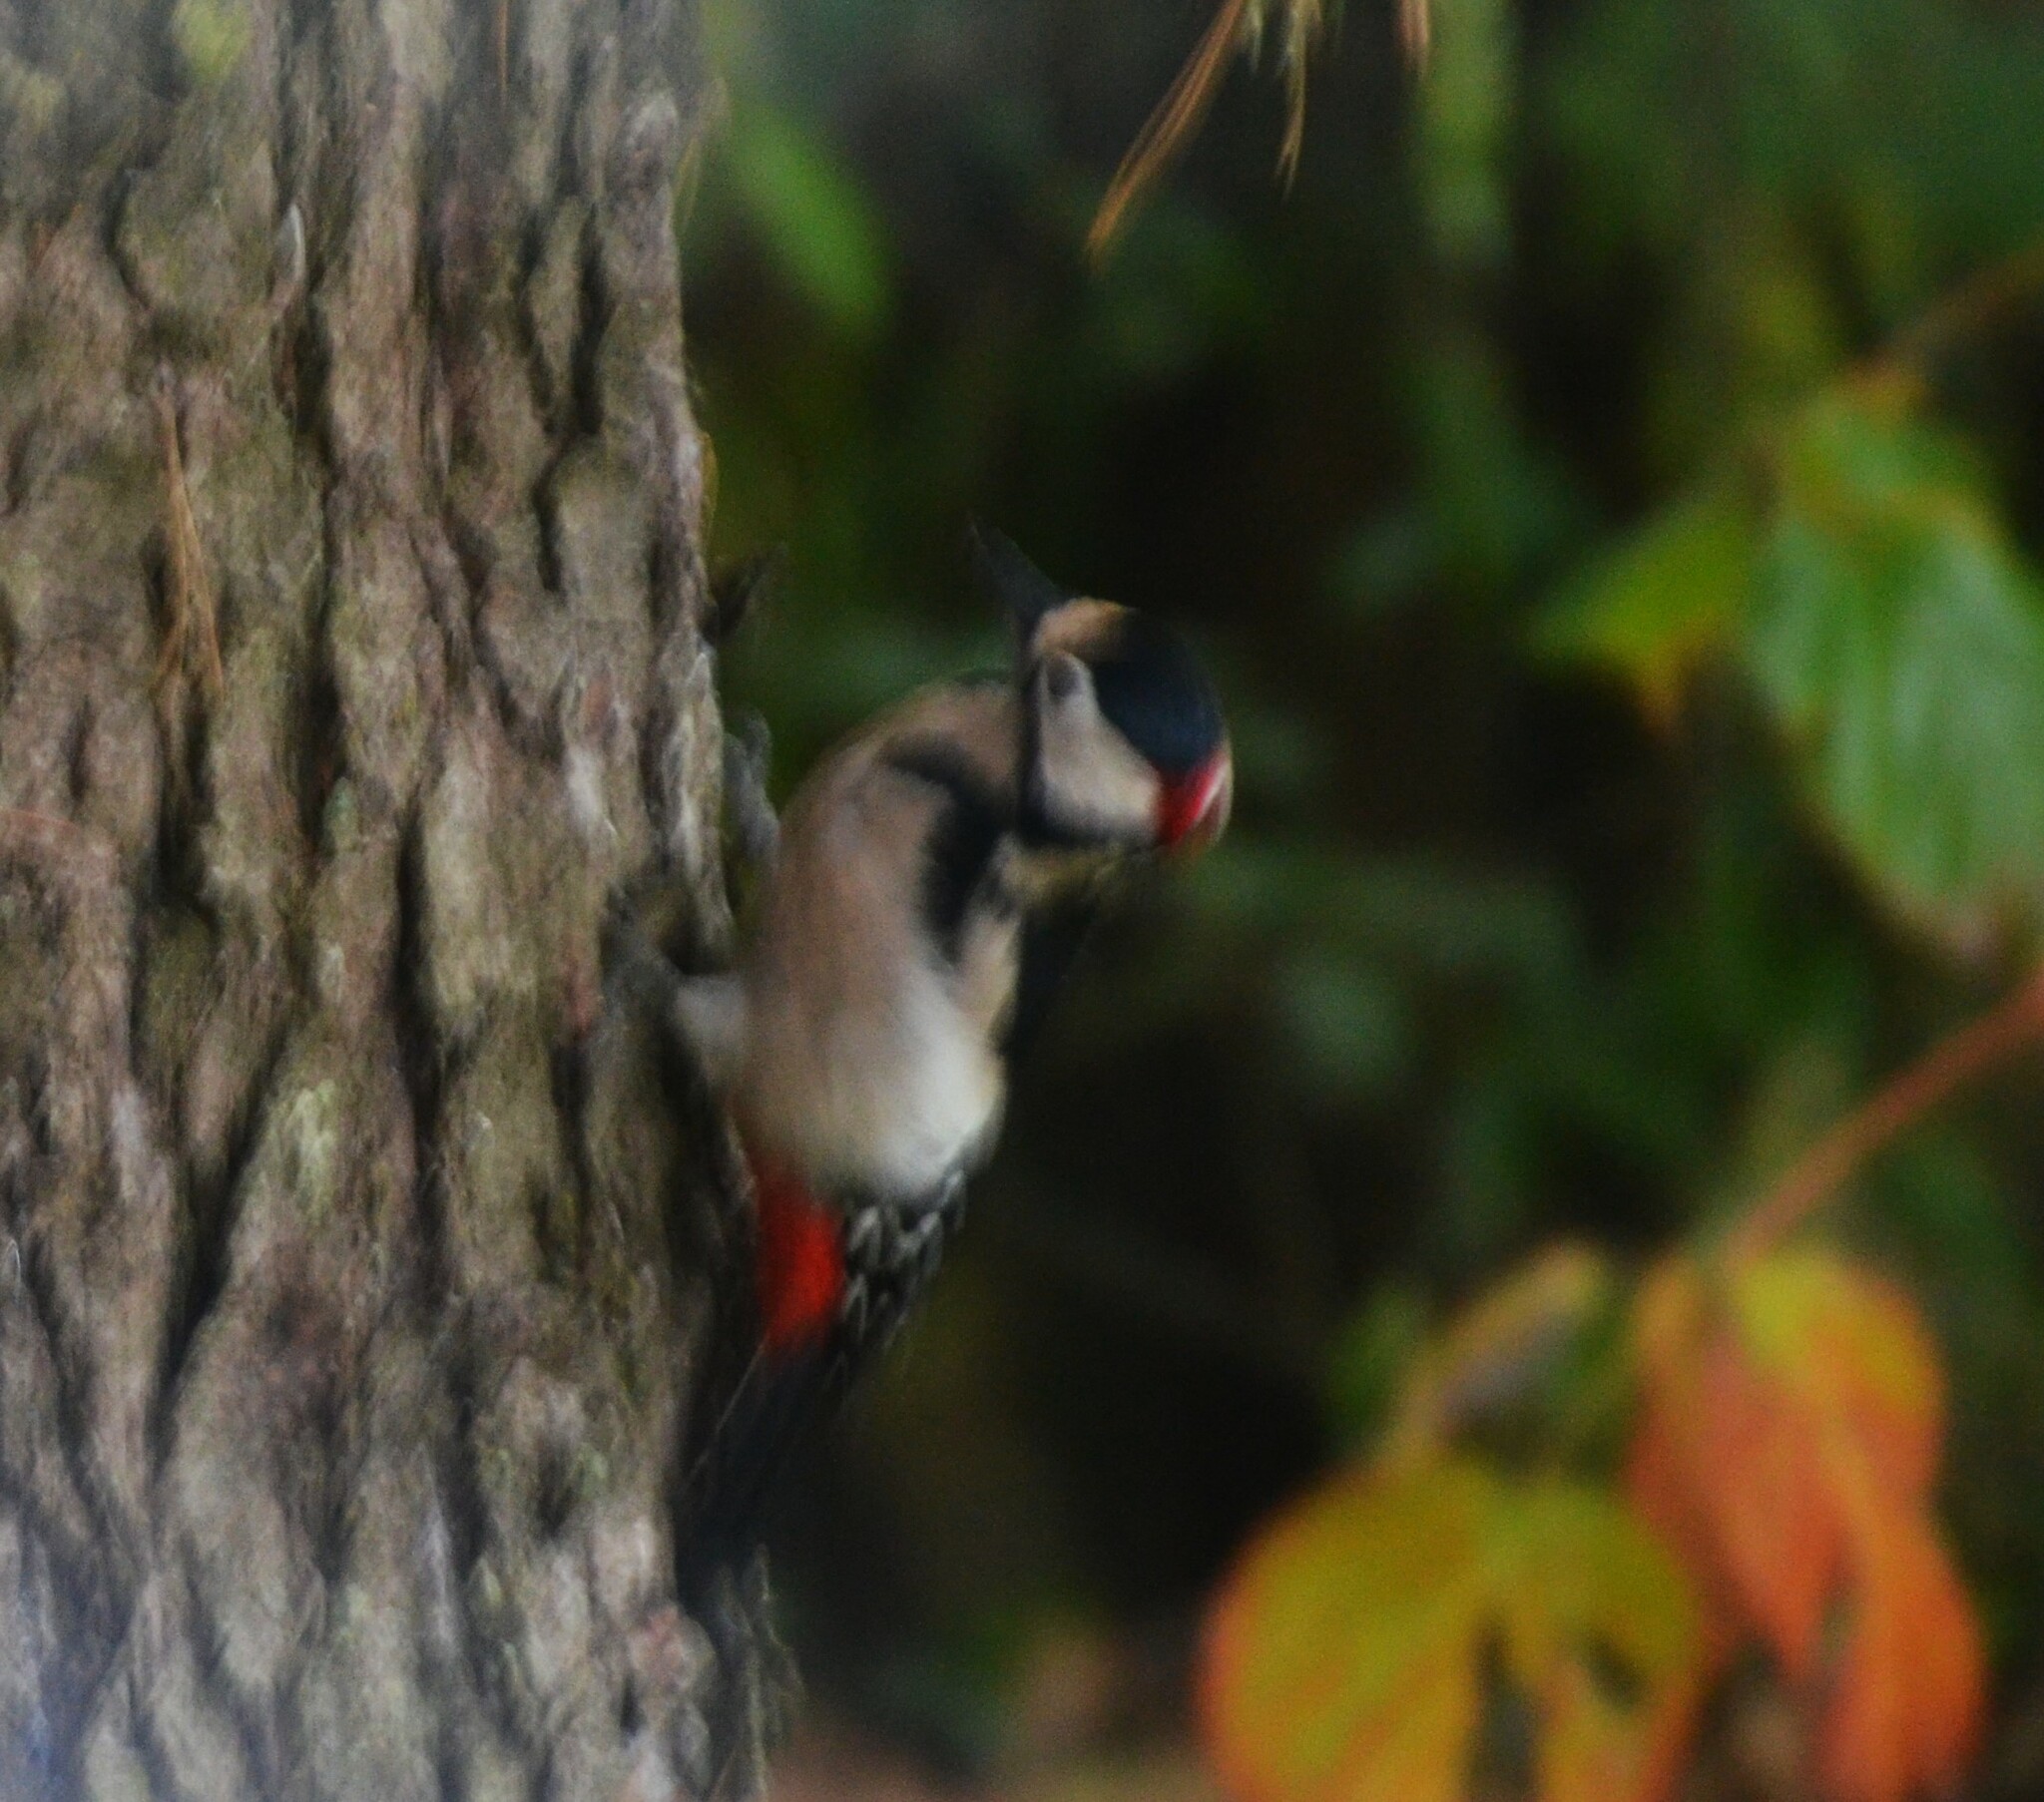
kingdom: Animalia
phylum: Chordata
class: Aves
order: Piciformes
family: Picidae
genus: Dendrocopos
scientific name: Dendrocopos major
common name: Great spotted woodpecker
